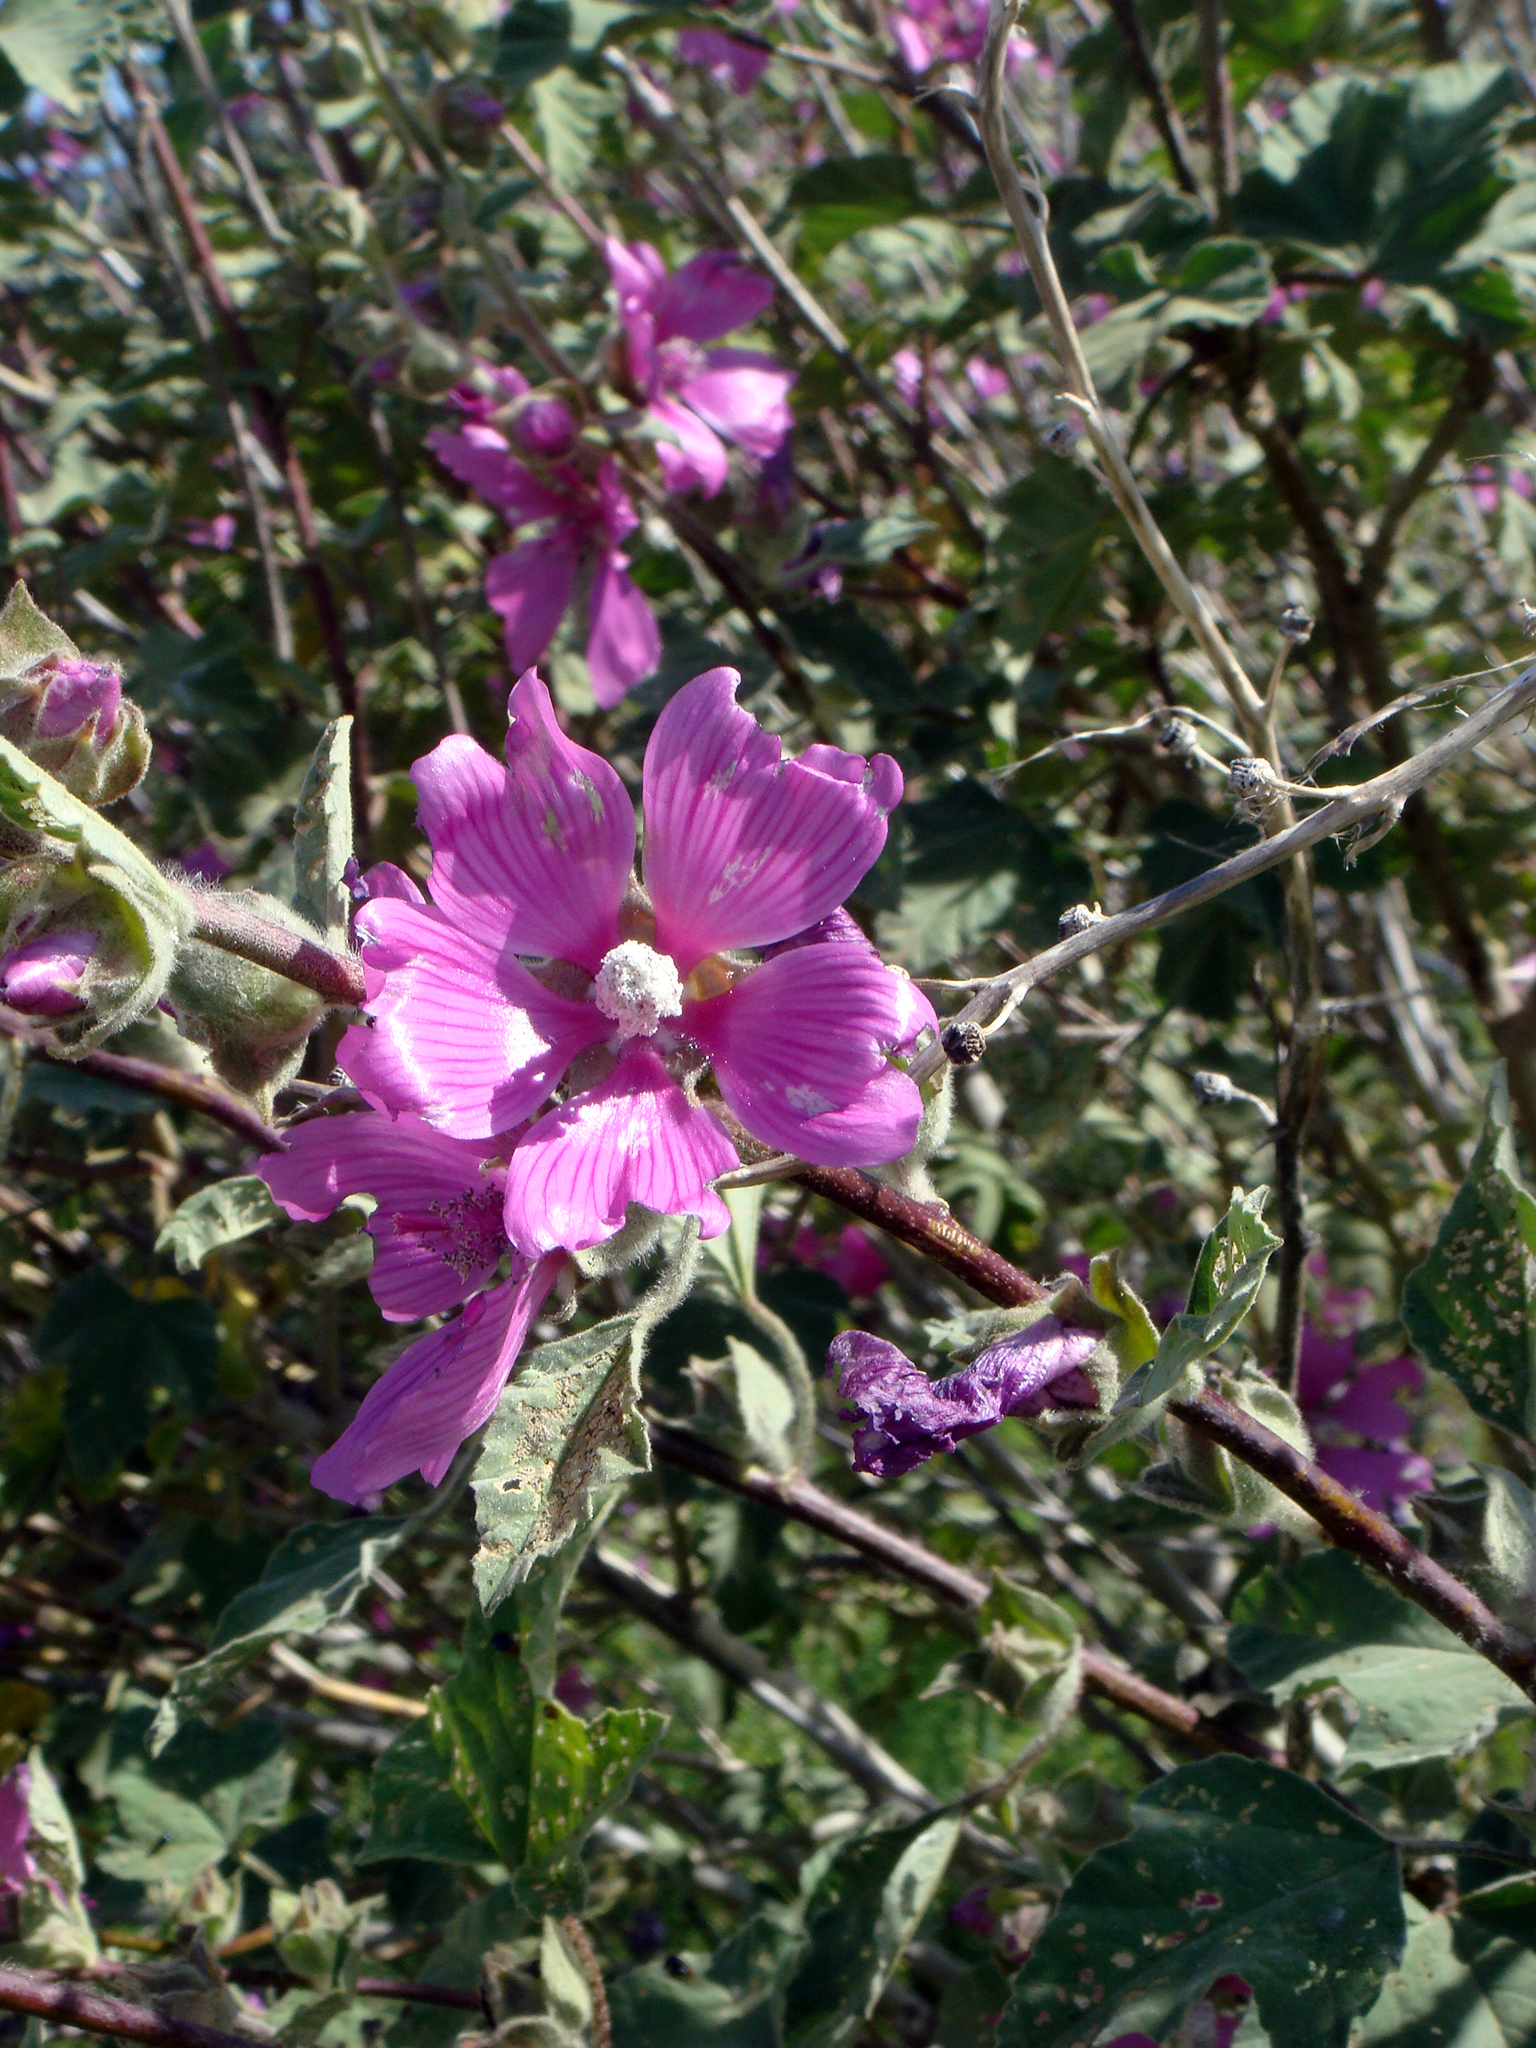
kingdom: Plantae
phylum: Tracheophyta
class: Magnoliopsida
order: Malvales
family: Malvaceae
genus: Malva
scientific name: Malva olbia
